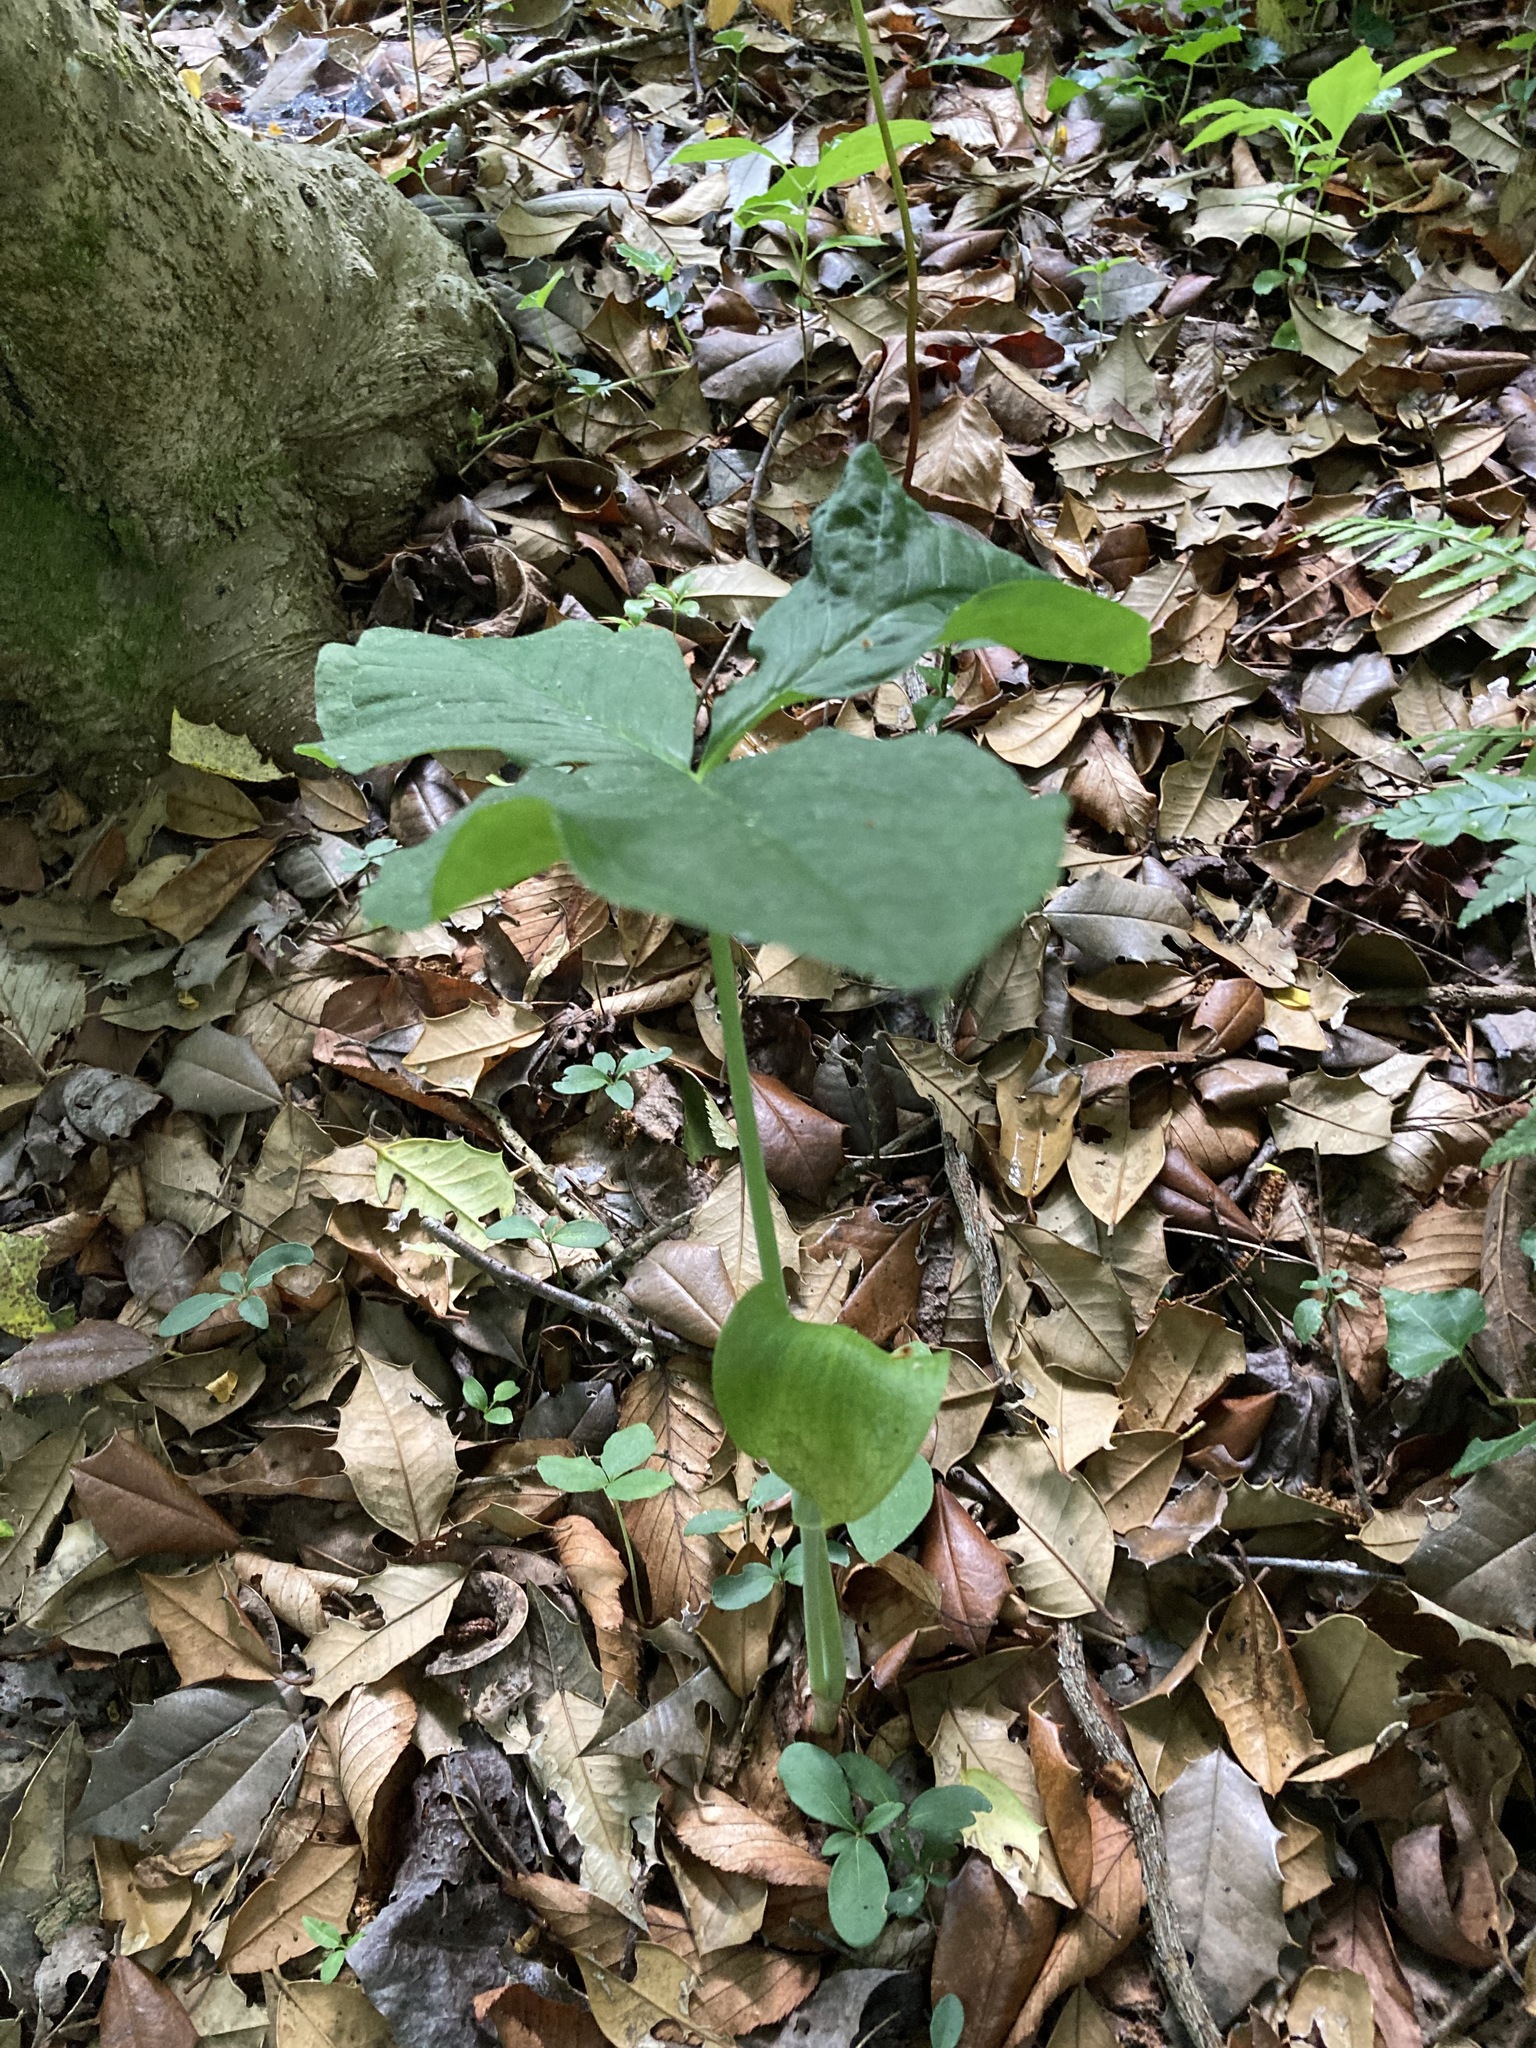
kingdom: Plantae
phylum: Tracheophyta
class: Liliopsida
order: Alismatales
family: Araceae
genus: Arisaema
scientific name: Arisaema triphyllum
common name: Jack-in-the-pulpit
